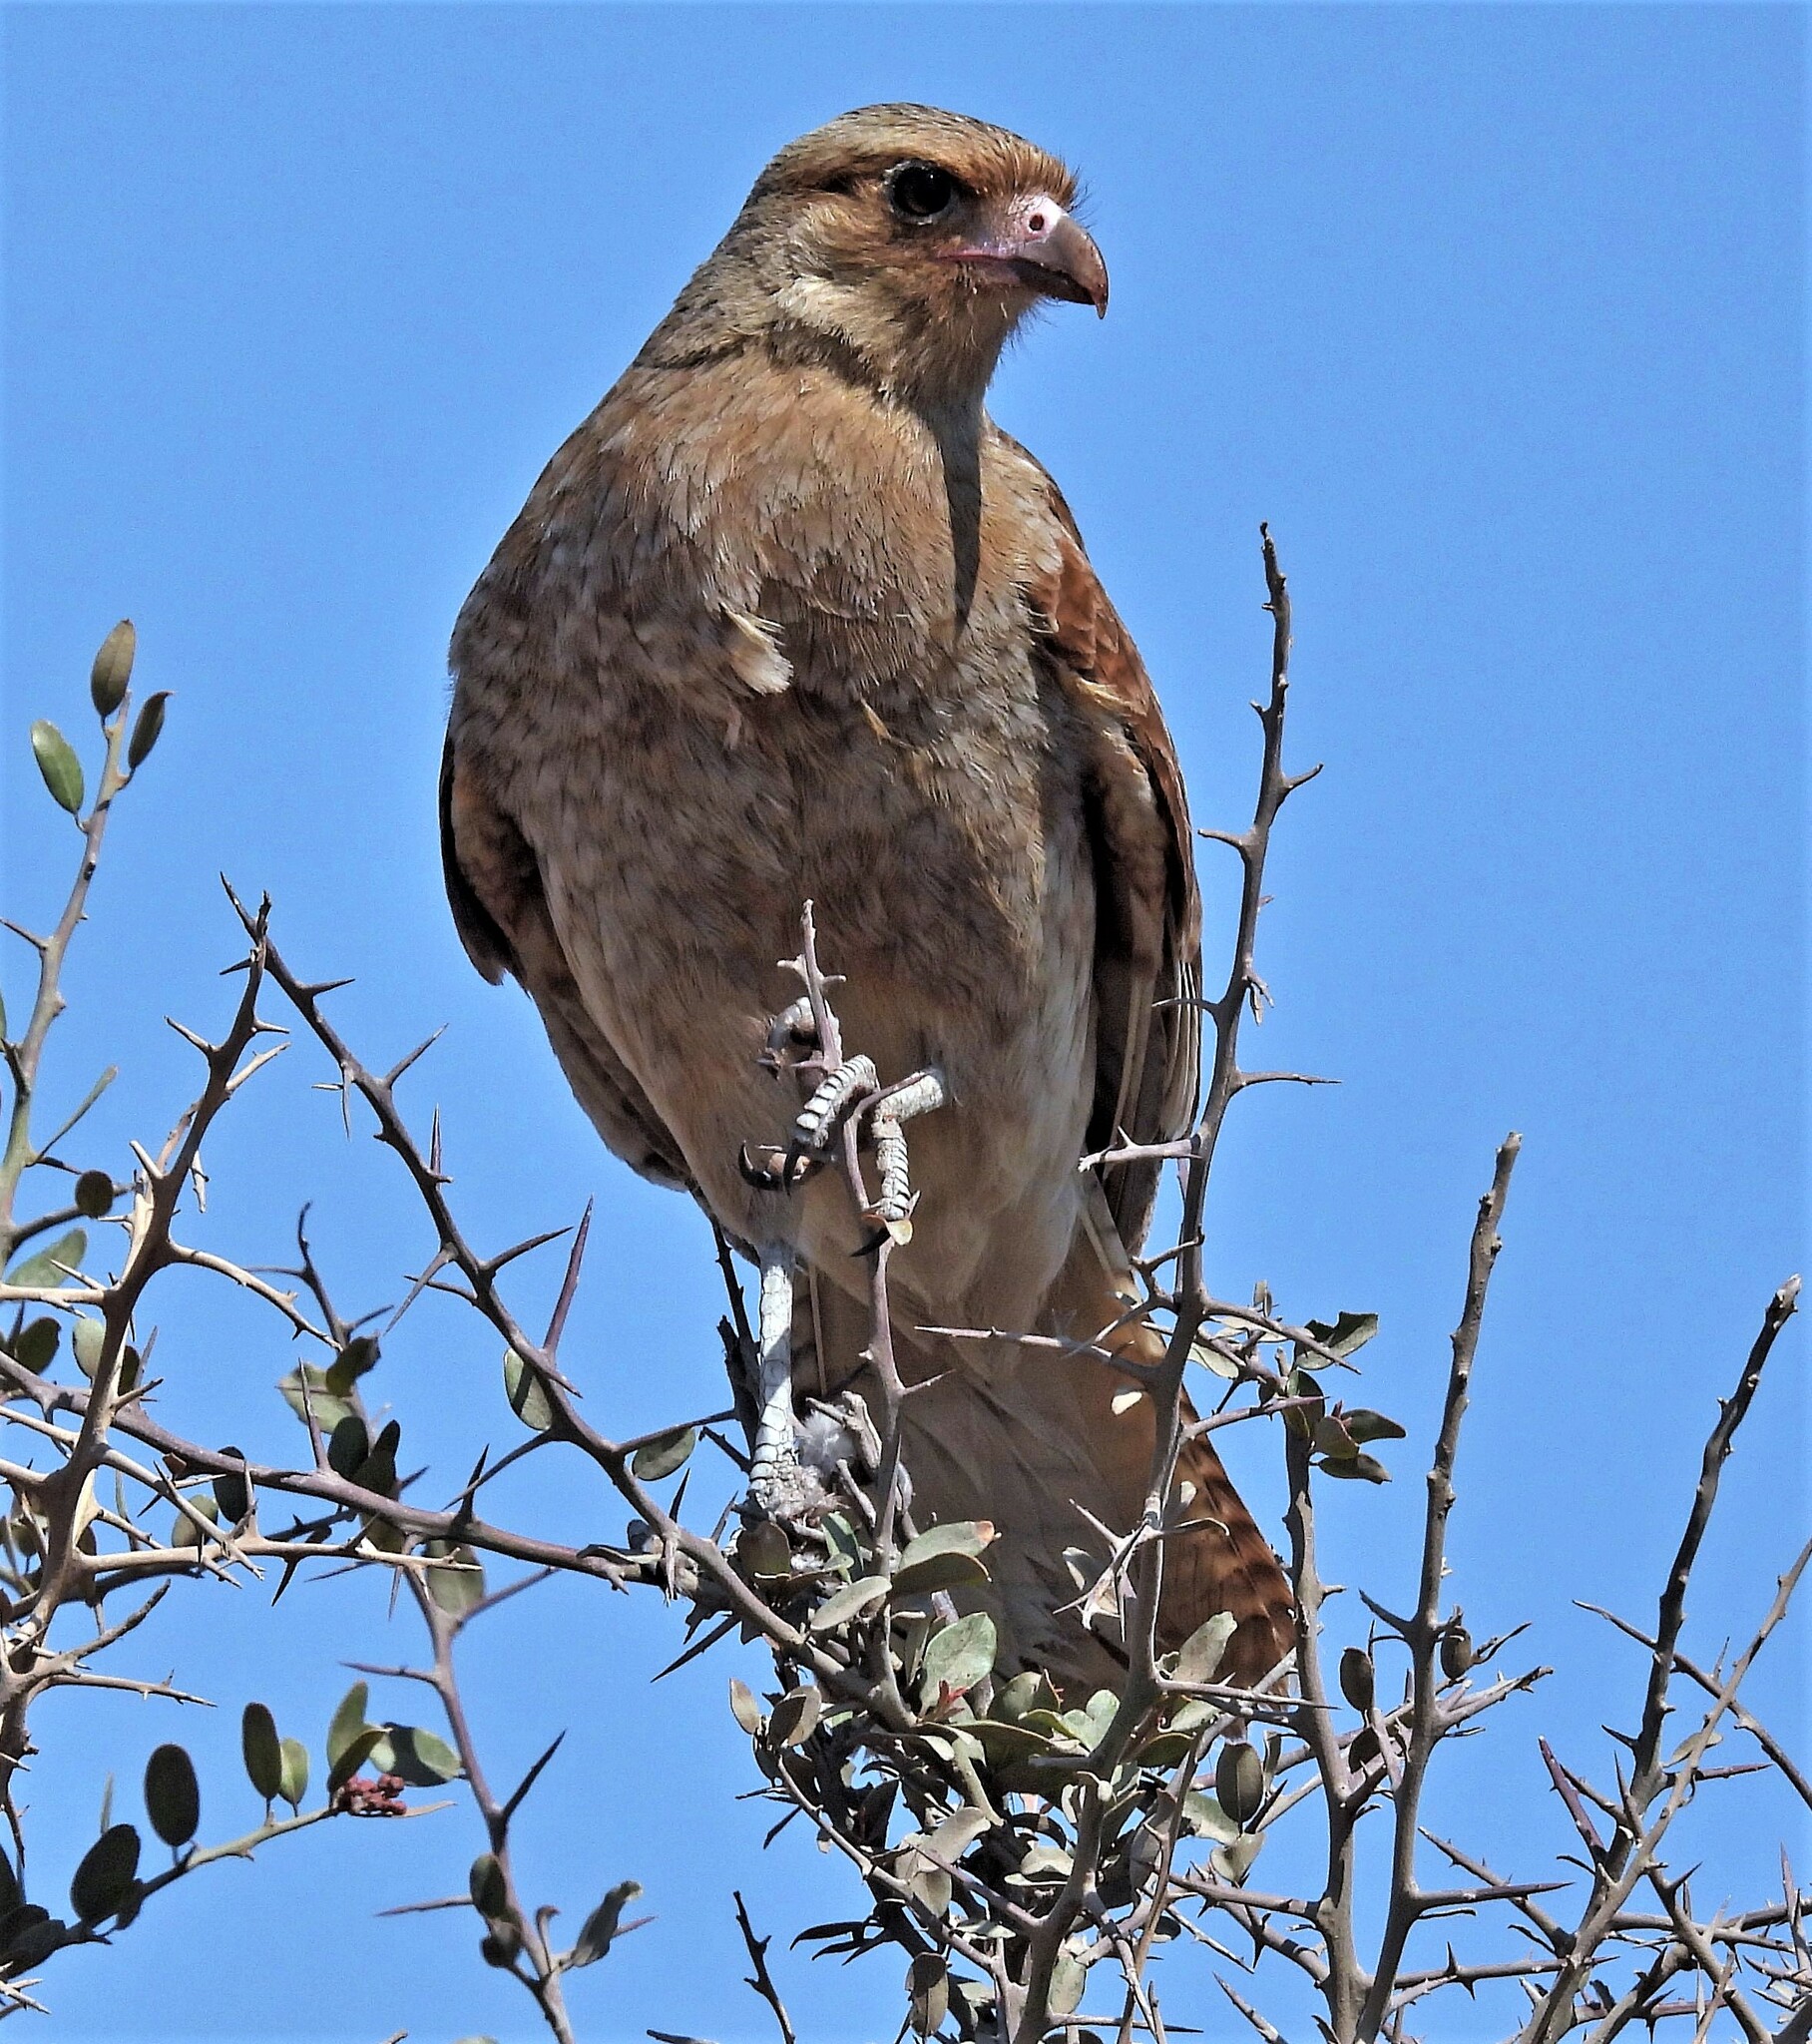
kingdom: Animalia
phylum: Chordata
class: Aves
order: Falconiformes
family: Falconidae
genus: Daptrius
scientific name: Daptrius
